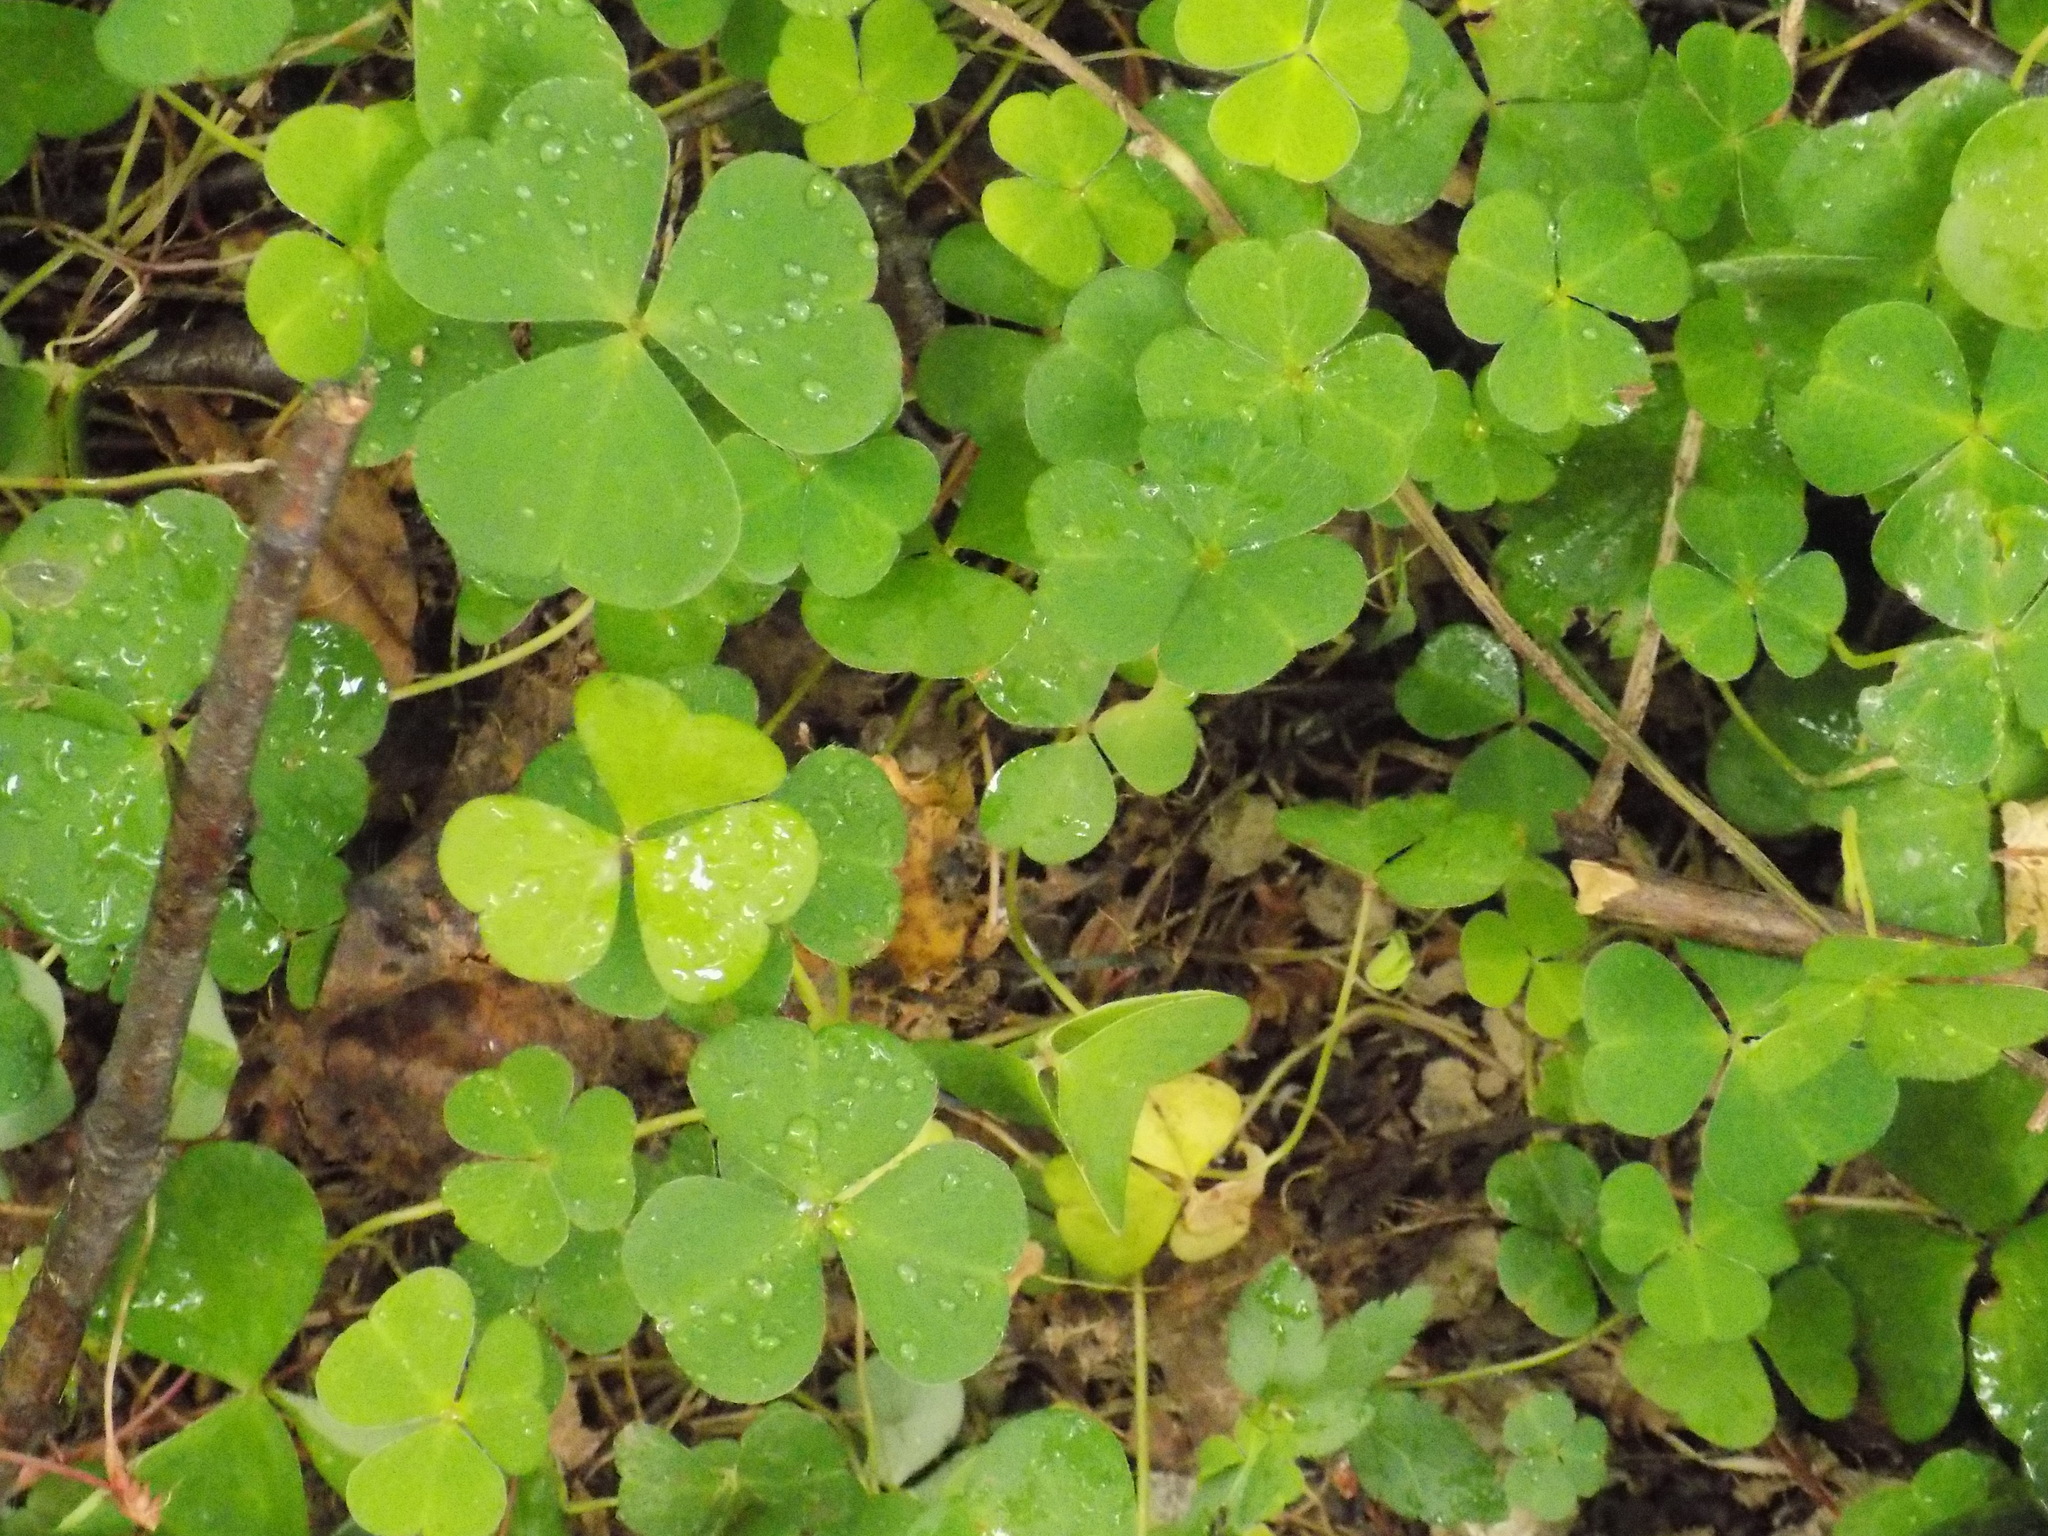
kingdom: Plantae
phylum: Tracheophyta
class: Magnoliopsida
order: Oxalidales
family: Oxalidaceae
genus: Oxalis
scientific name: Oxalis acetosella
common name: Wood-sorrel
